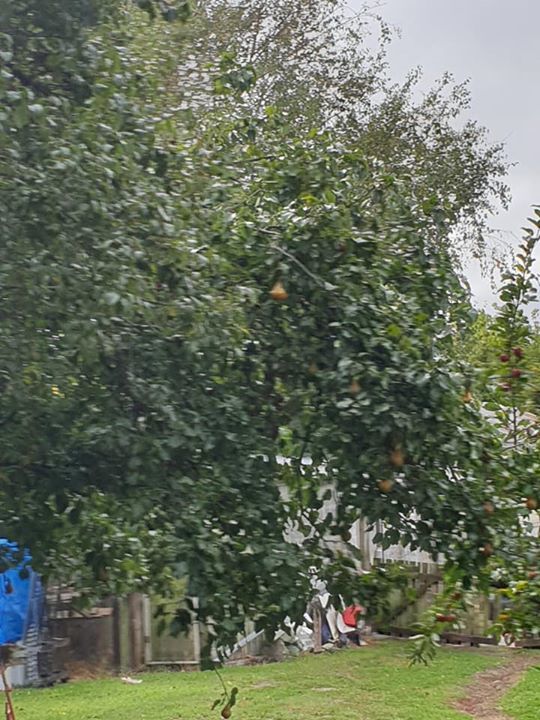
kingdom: Animalia
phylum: Chordata
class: Aves
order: Passeriformes
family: Sturnidae
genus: Sturnus
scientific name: Sturnus vulgaris
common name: Common starling
